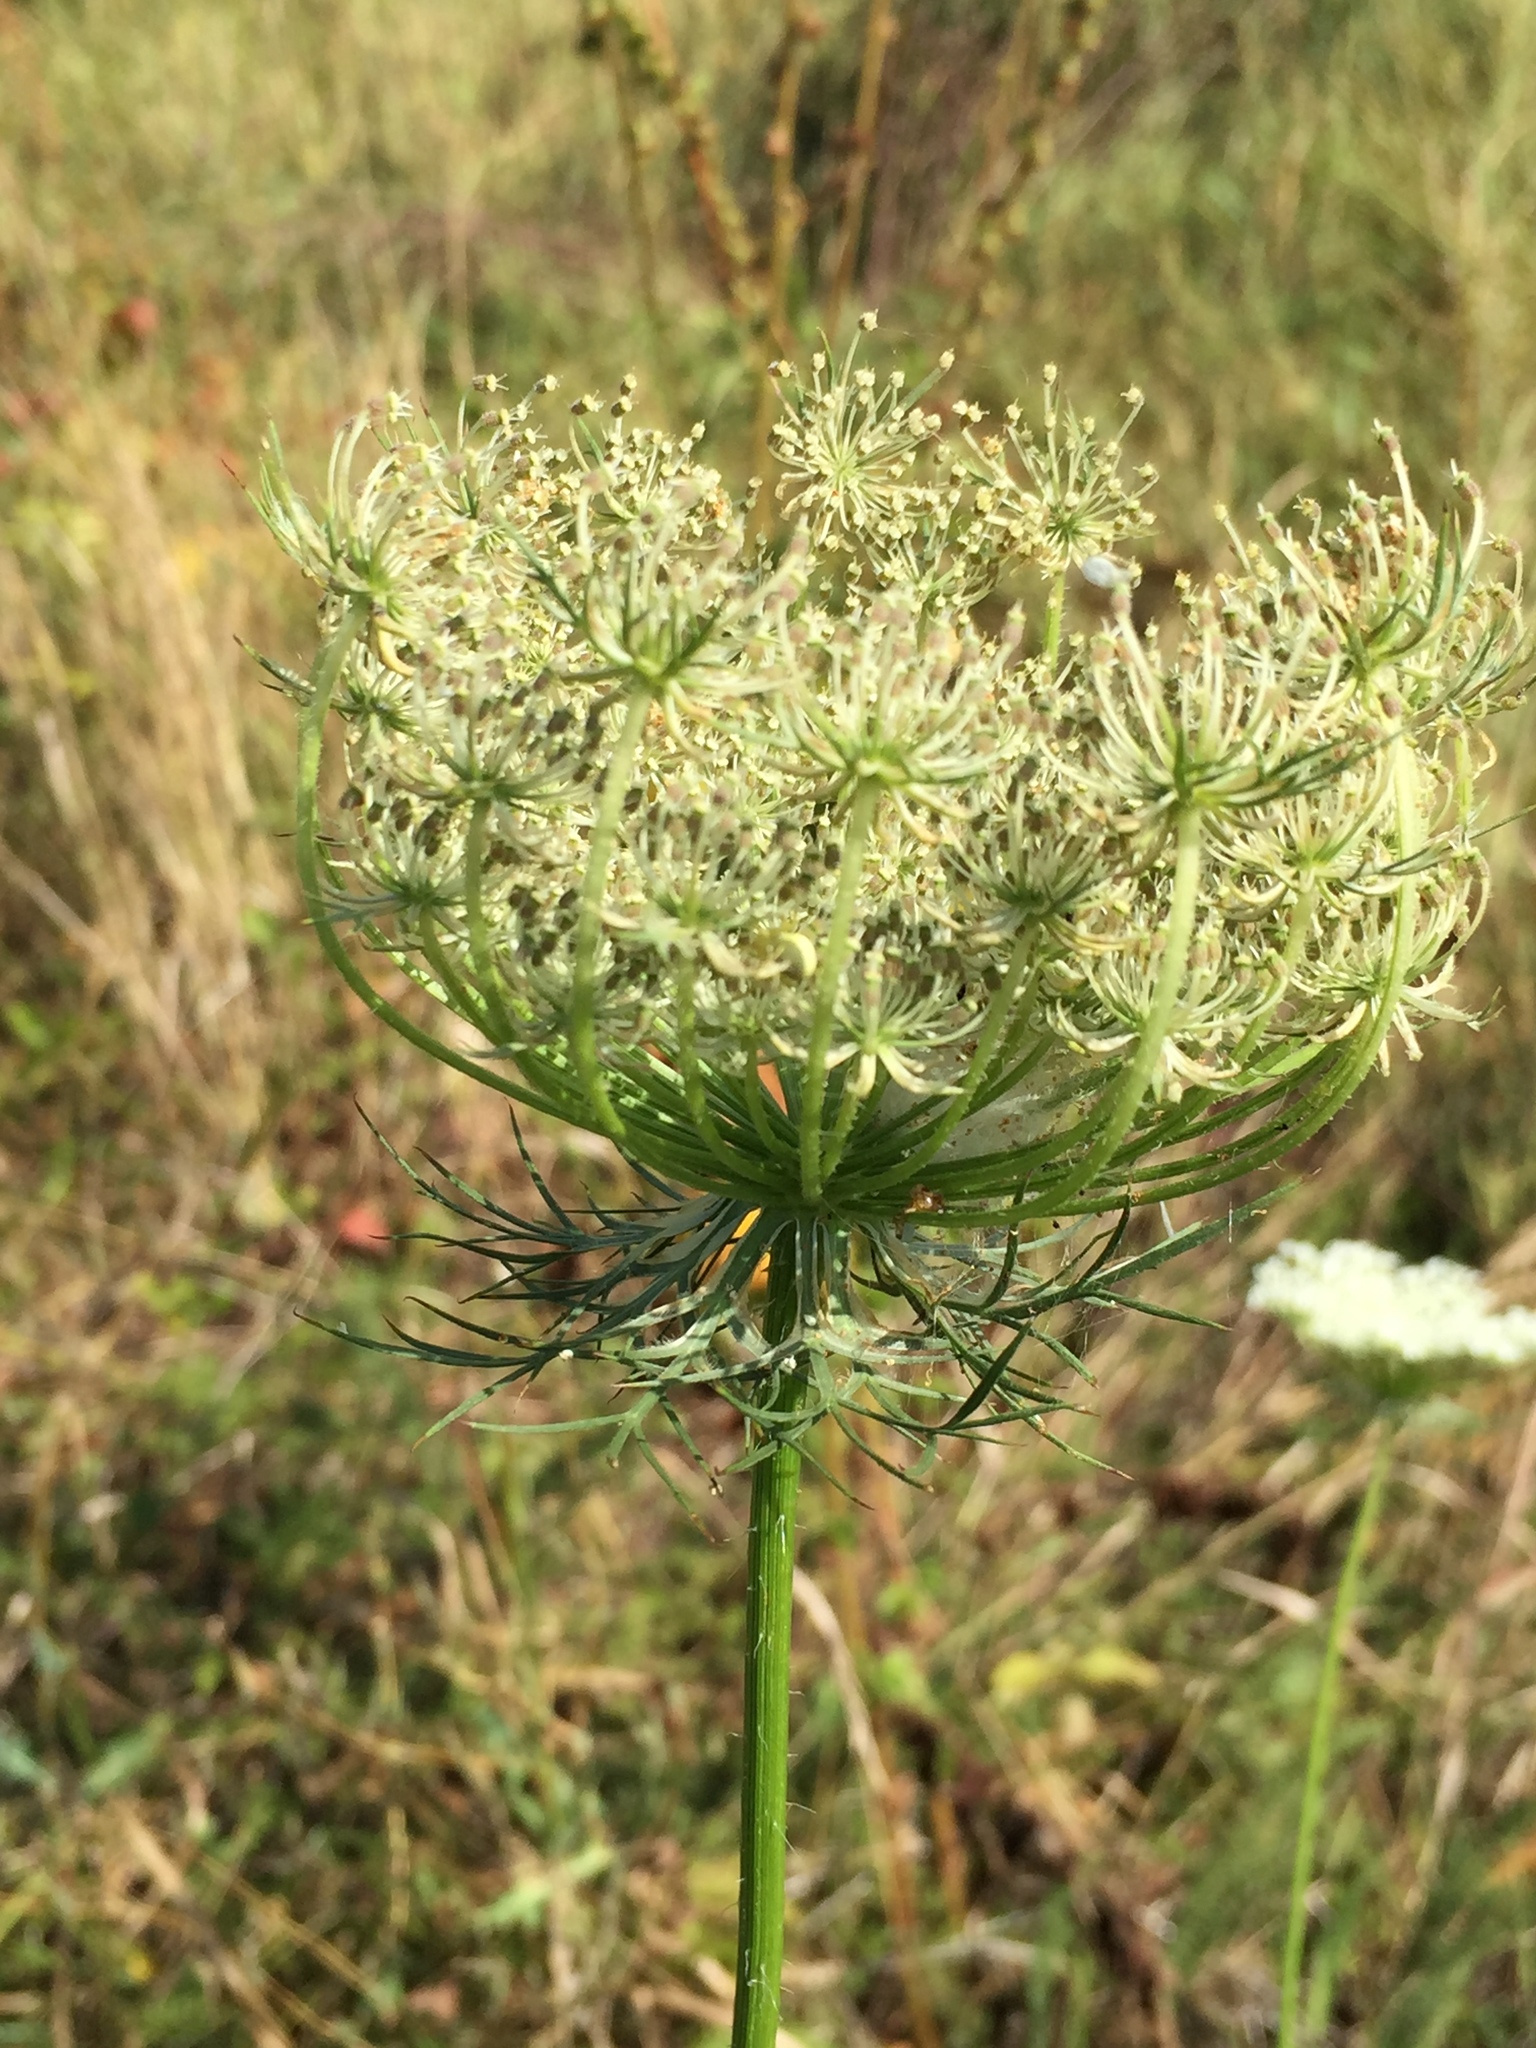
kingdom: Plantae
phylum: Tracheophyta
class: Magnoliopsida
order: Apiales
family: Apiaceae
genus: Daucus
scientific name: Daucus carota
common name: Wild carrot
